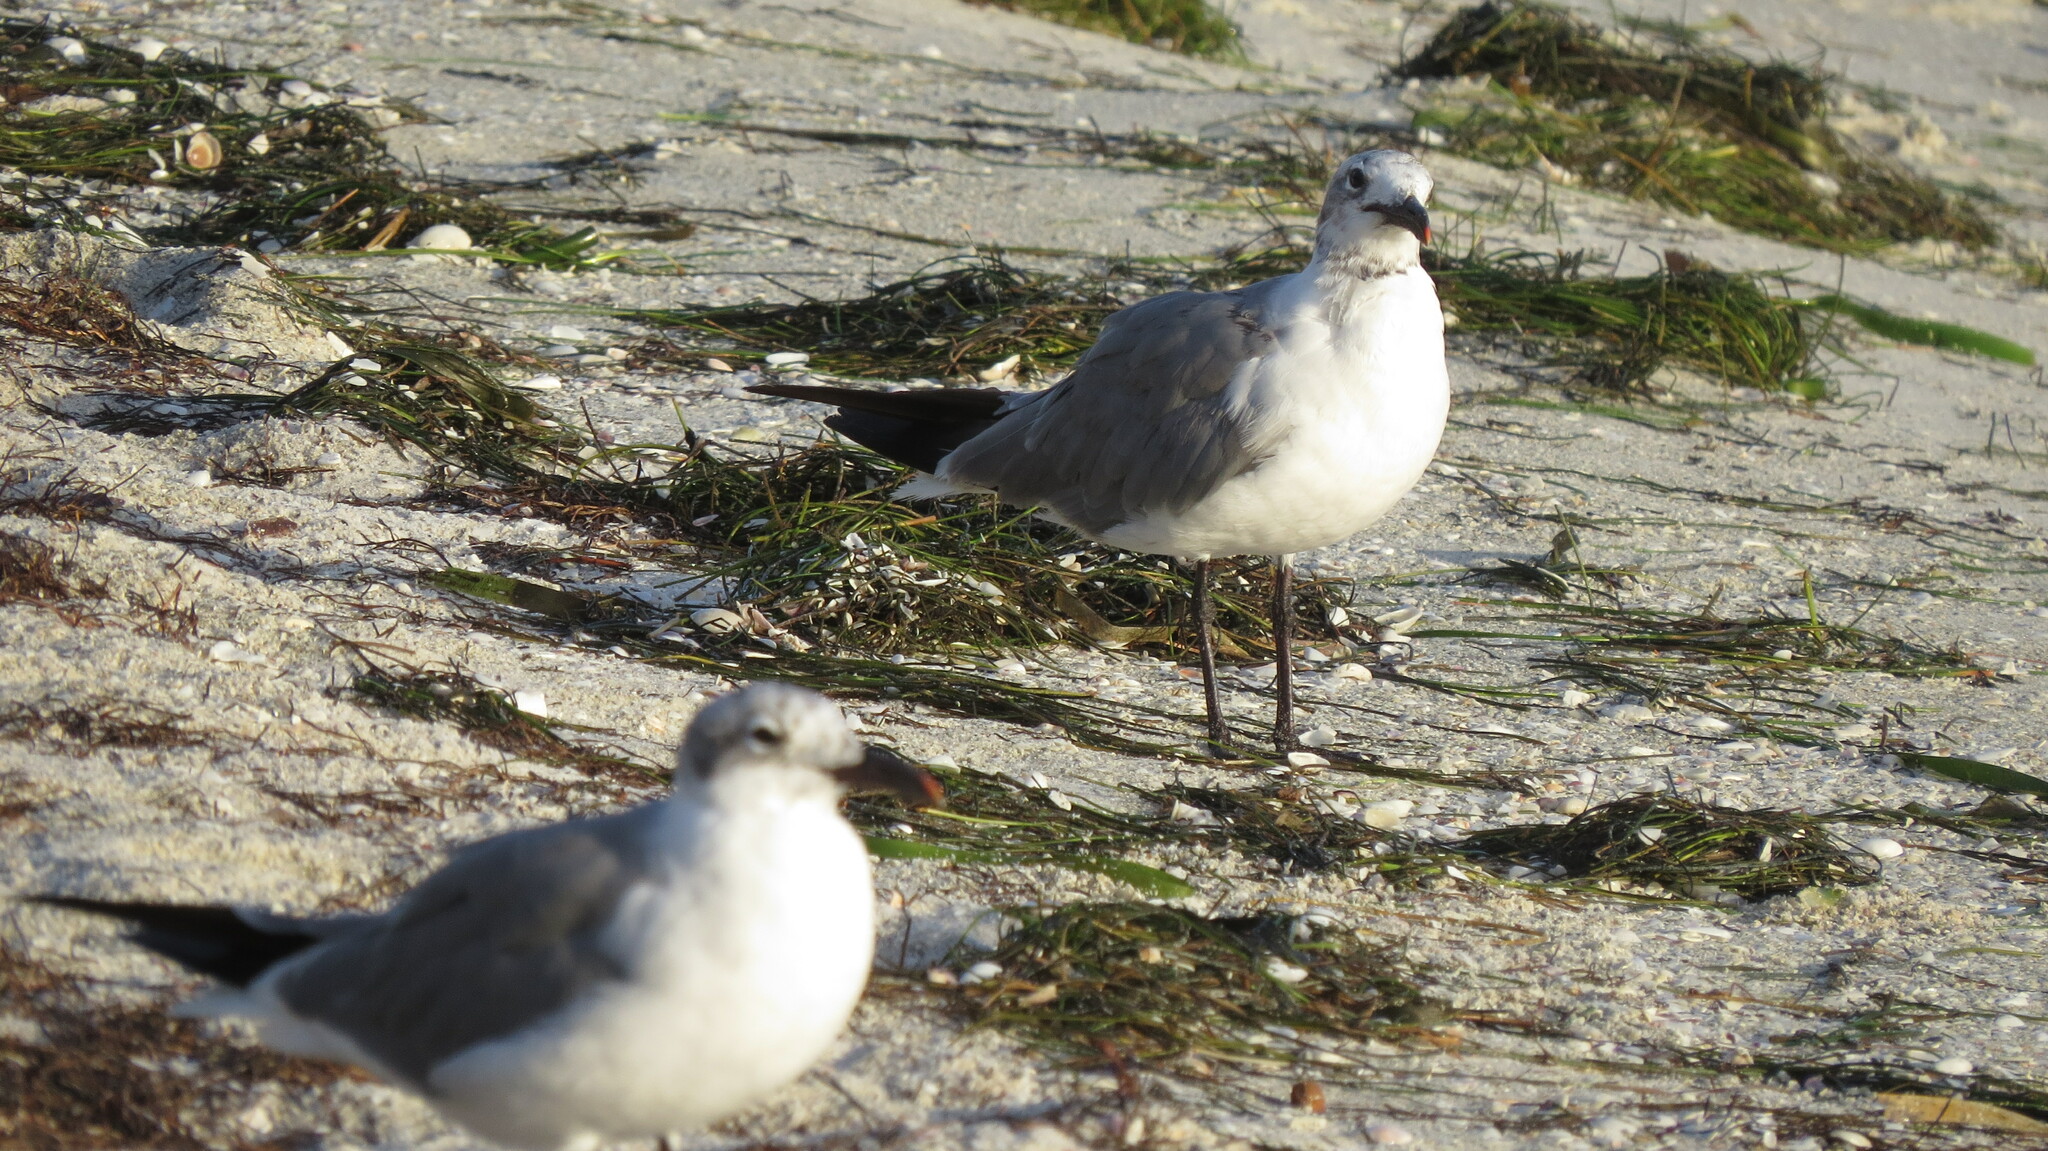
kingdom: Animalia
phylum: Chordata
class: Aves
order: Charadriiformes
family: Laridae
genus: Leucophaeus
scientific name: Leucophaeus atricilla
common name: Laughing gull
